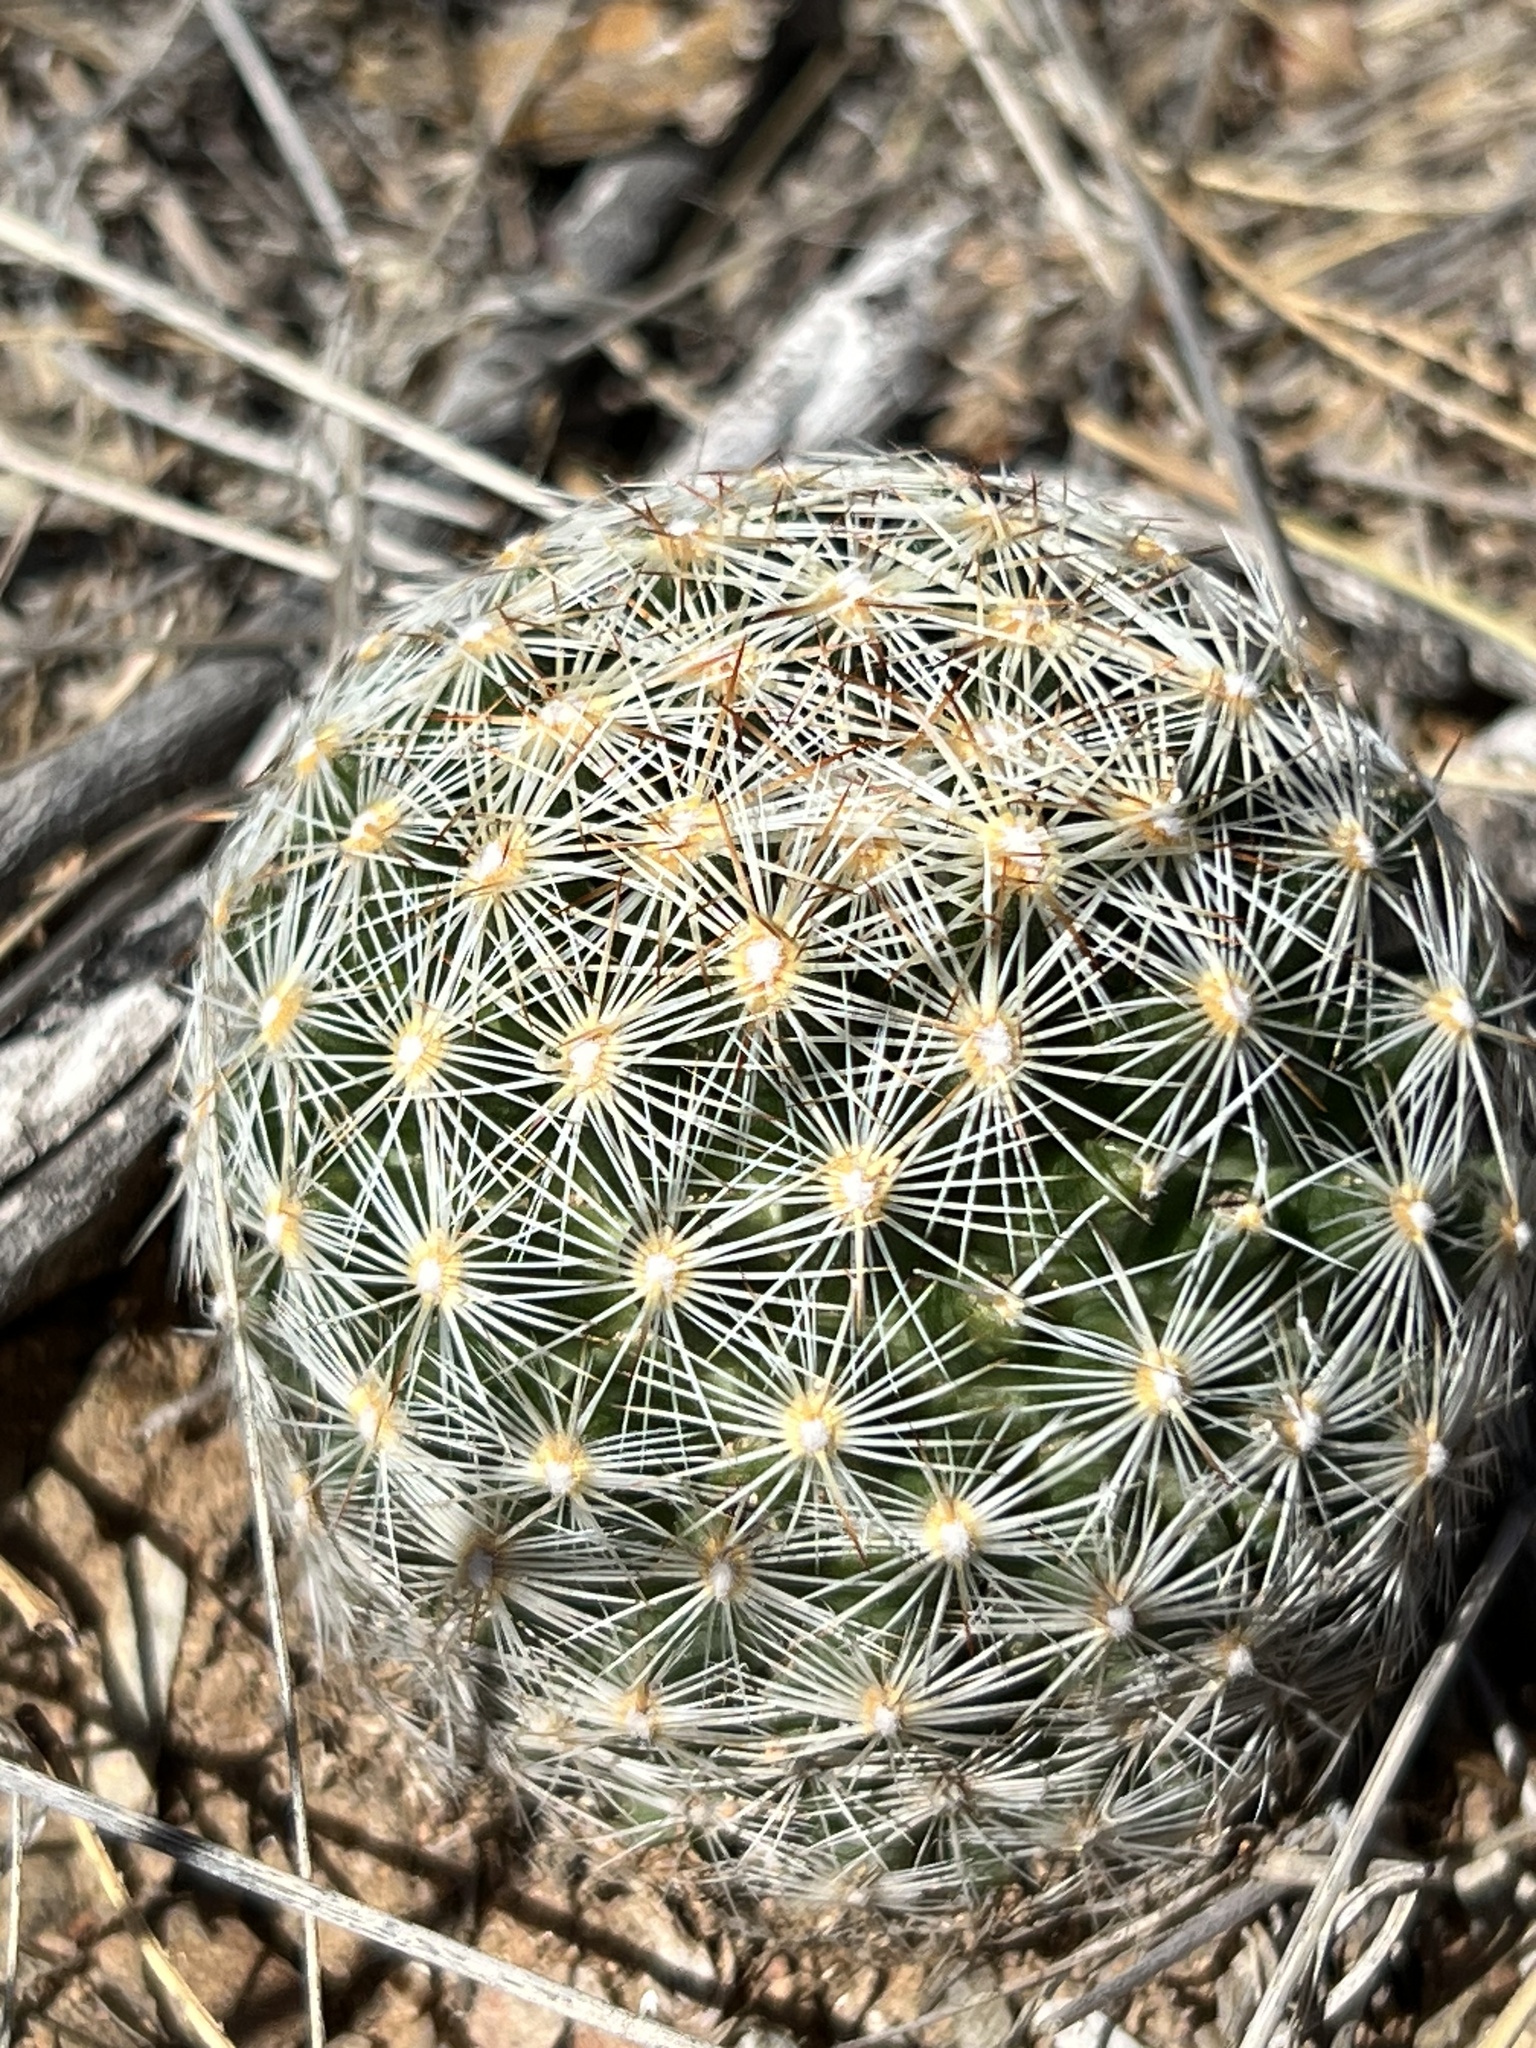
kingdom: Plantae
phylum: Tracheophyta
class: Magnoliopsida
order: Caryophyllales
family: Cactaceae
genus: Pelecyphora
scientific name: Pelecyphora vivipara
